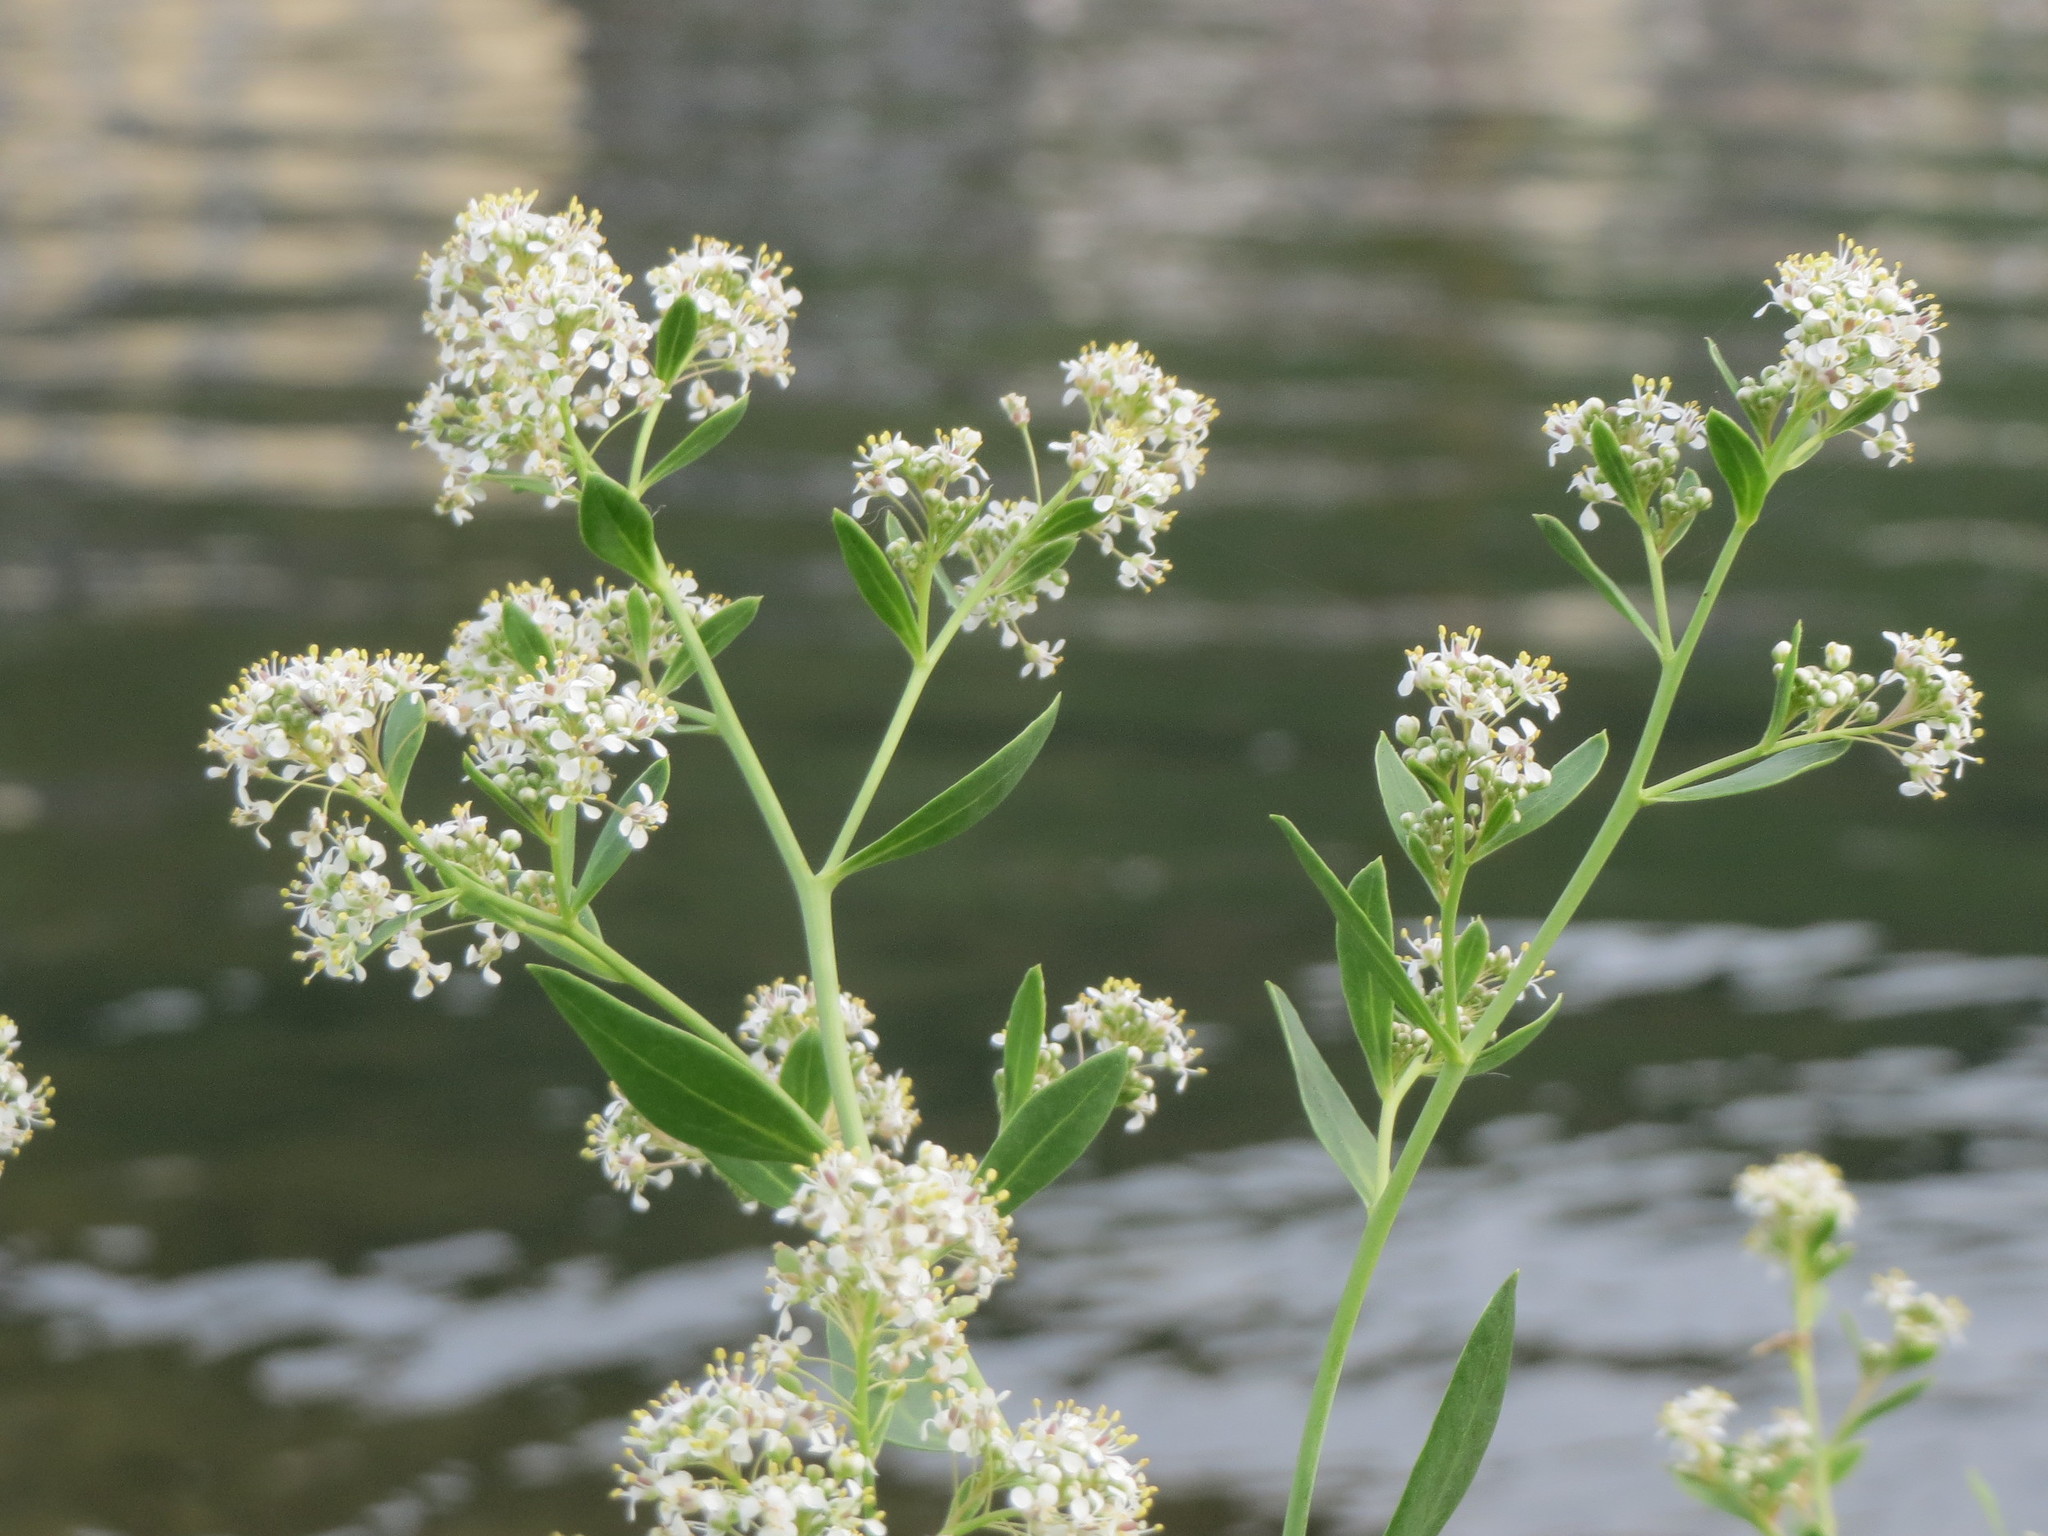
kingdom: Plantae
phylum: Tracheophyta
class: Magnoliopsida
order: Brassicales
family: Brassicaceae
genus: Armoracia
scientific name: Armoracia rusticana
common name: Horseradish
